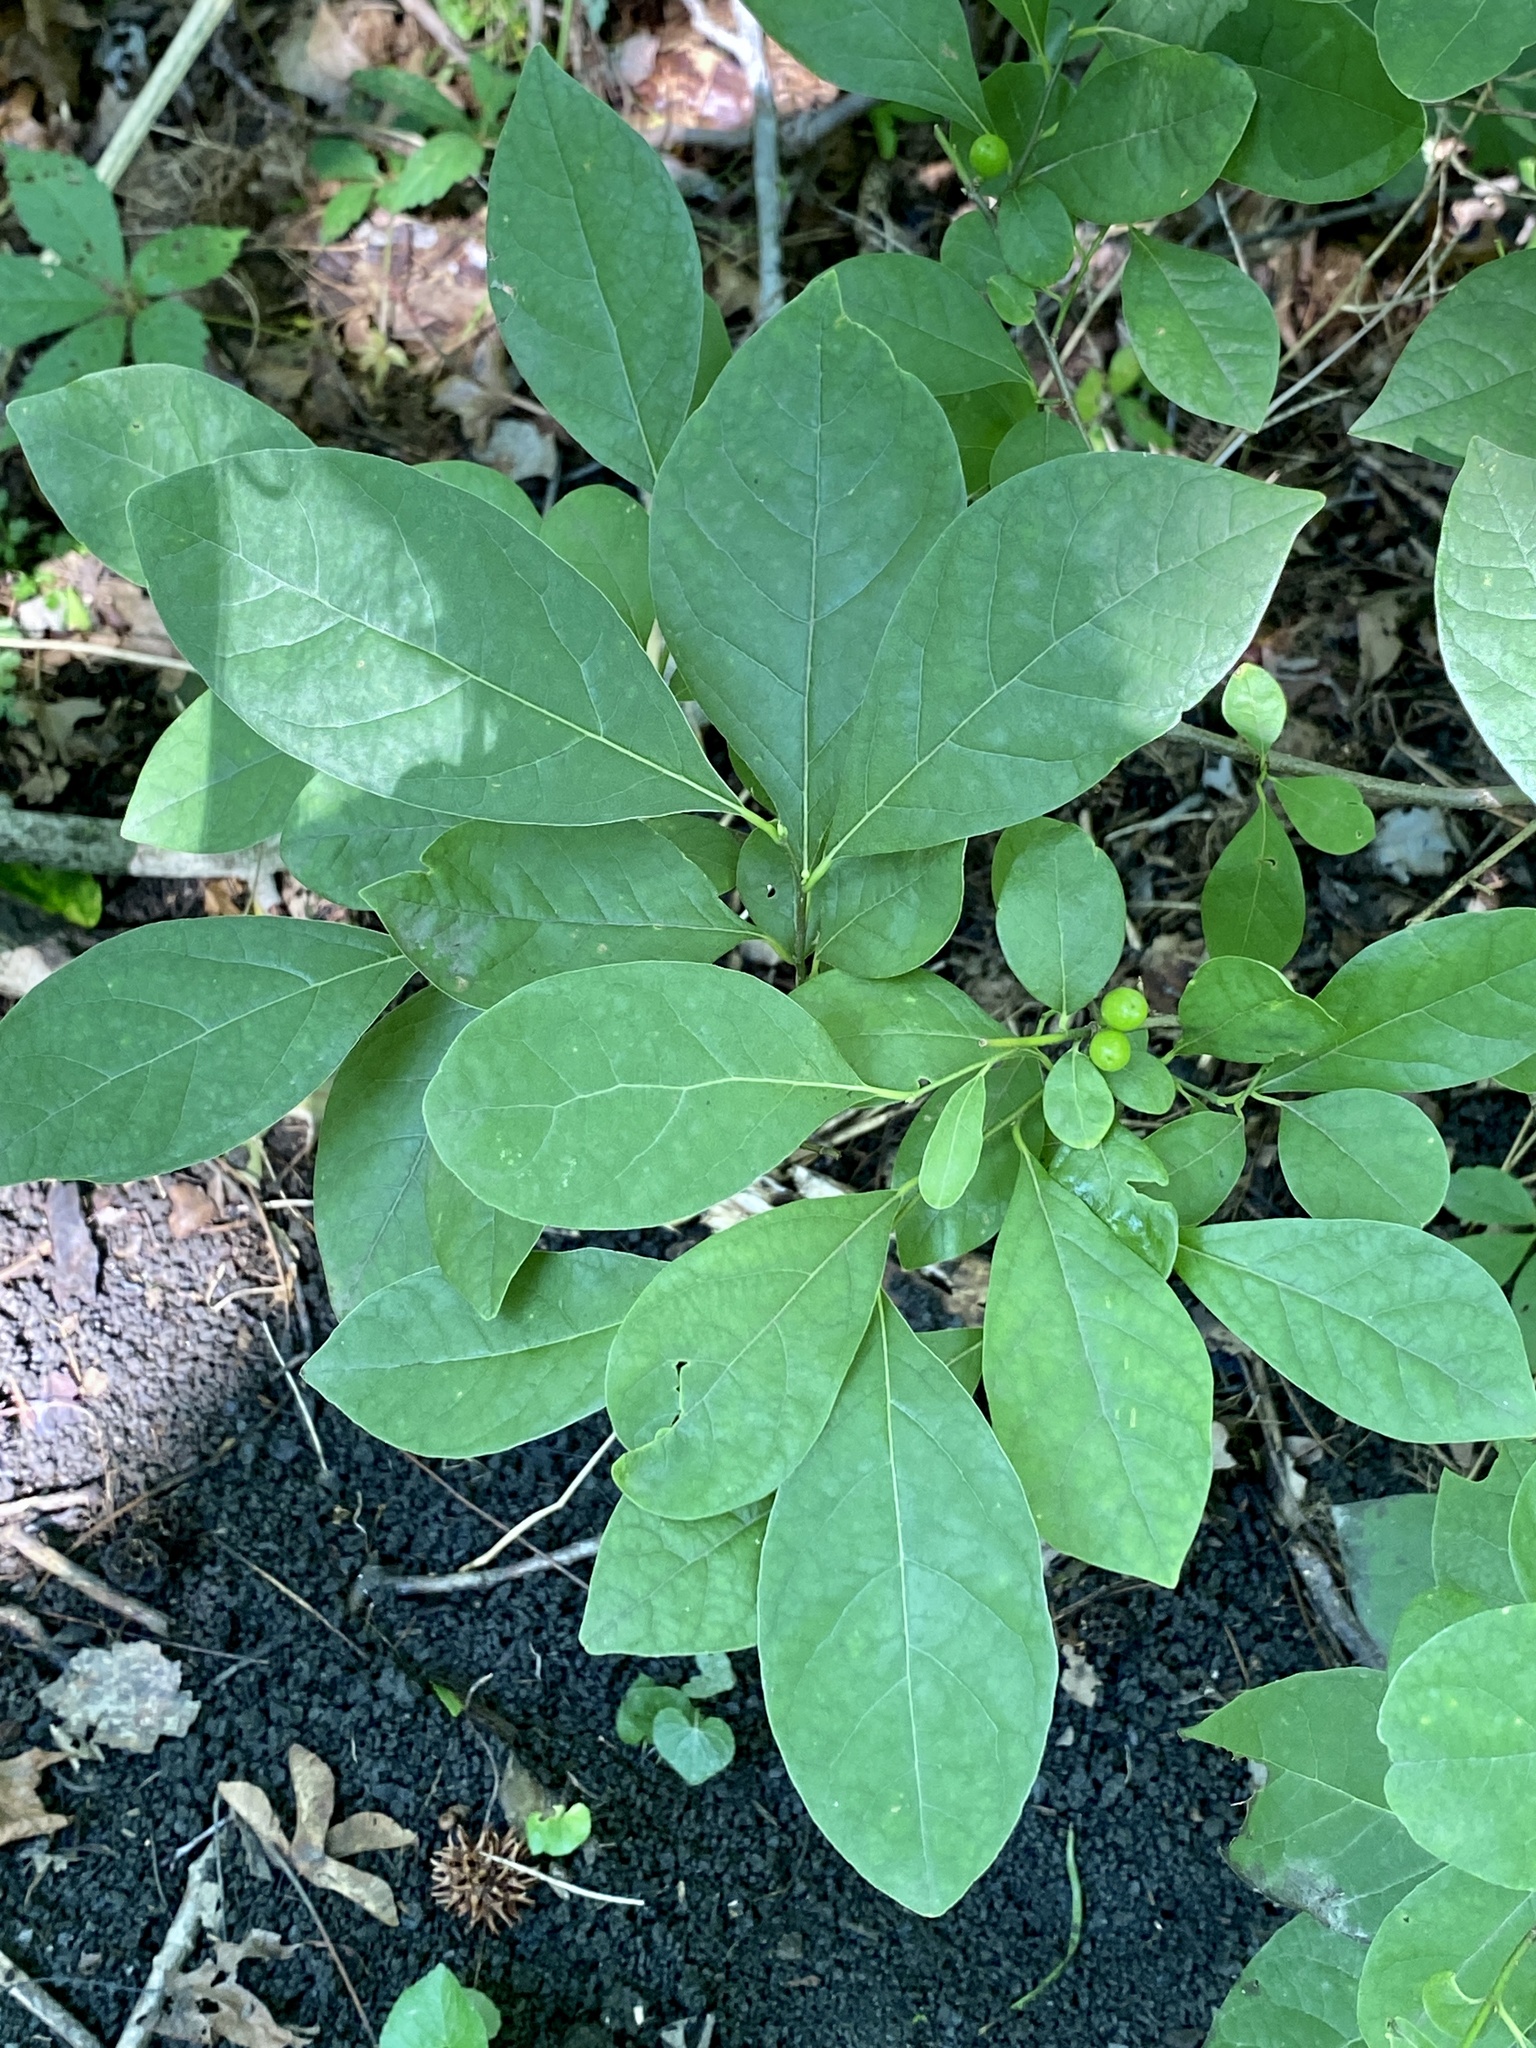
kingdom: Plantae
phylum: Tracheophyta
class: Magnoliopsida
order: Laurales
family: Lauraceae
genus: Lindera
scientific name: Lindera benzoin
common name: Spicebush
